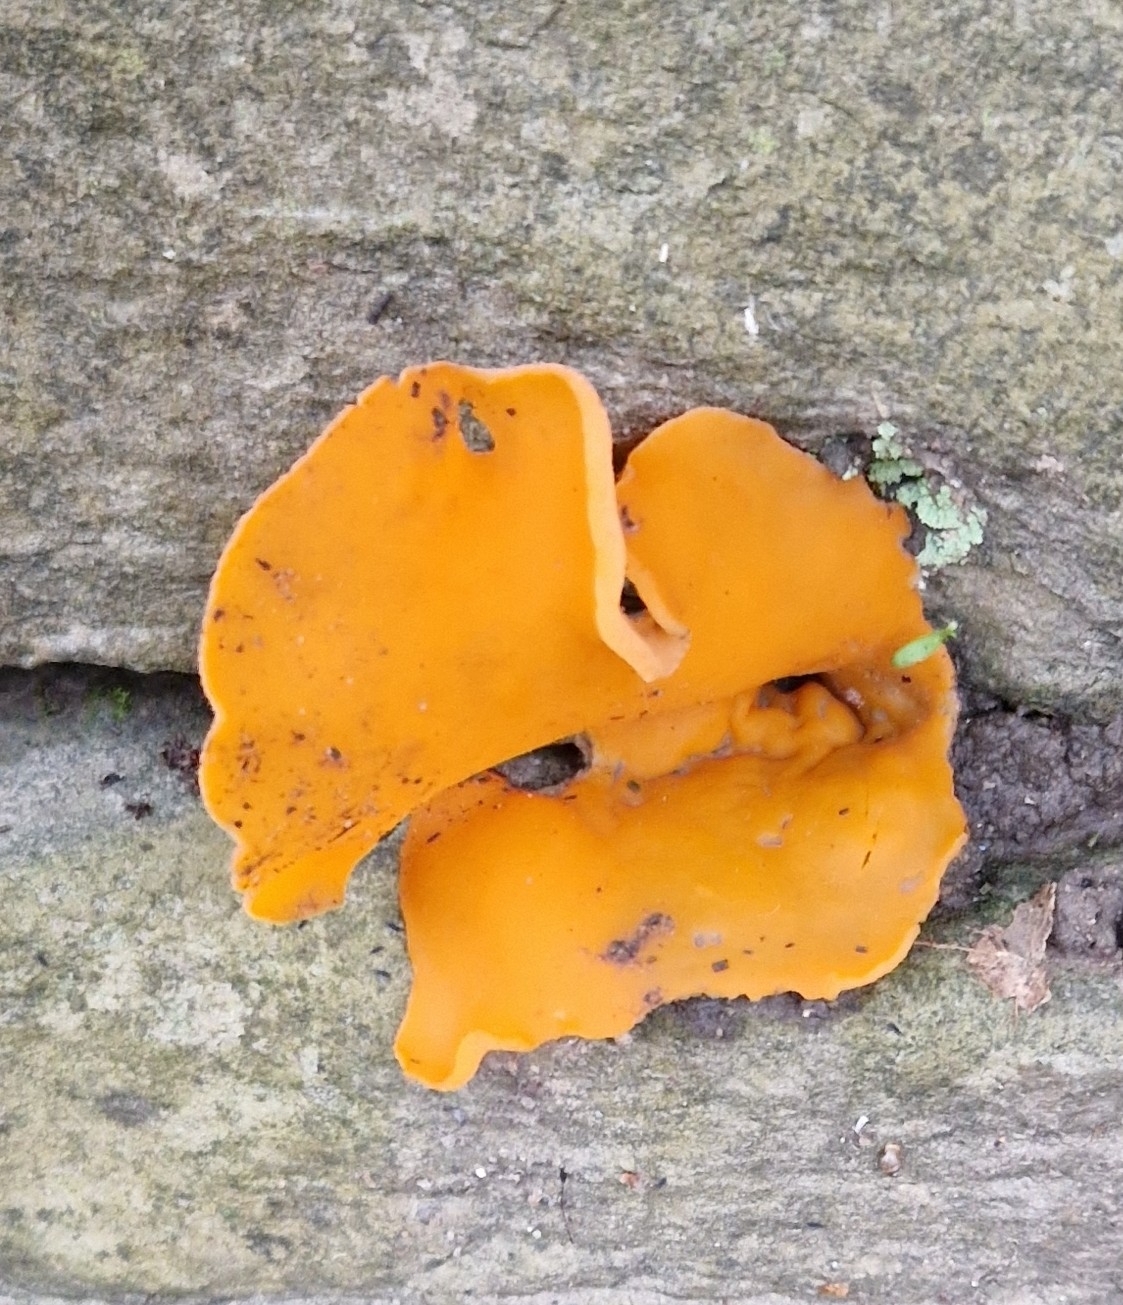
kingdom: Fungi
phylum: Ascomycota
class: Pezizomycetes
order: Pezizales
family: Pyronemataceae
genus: Aleuria
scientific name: Aleuria aurantia
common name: Orange peel fungus
